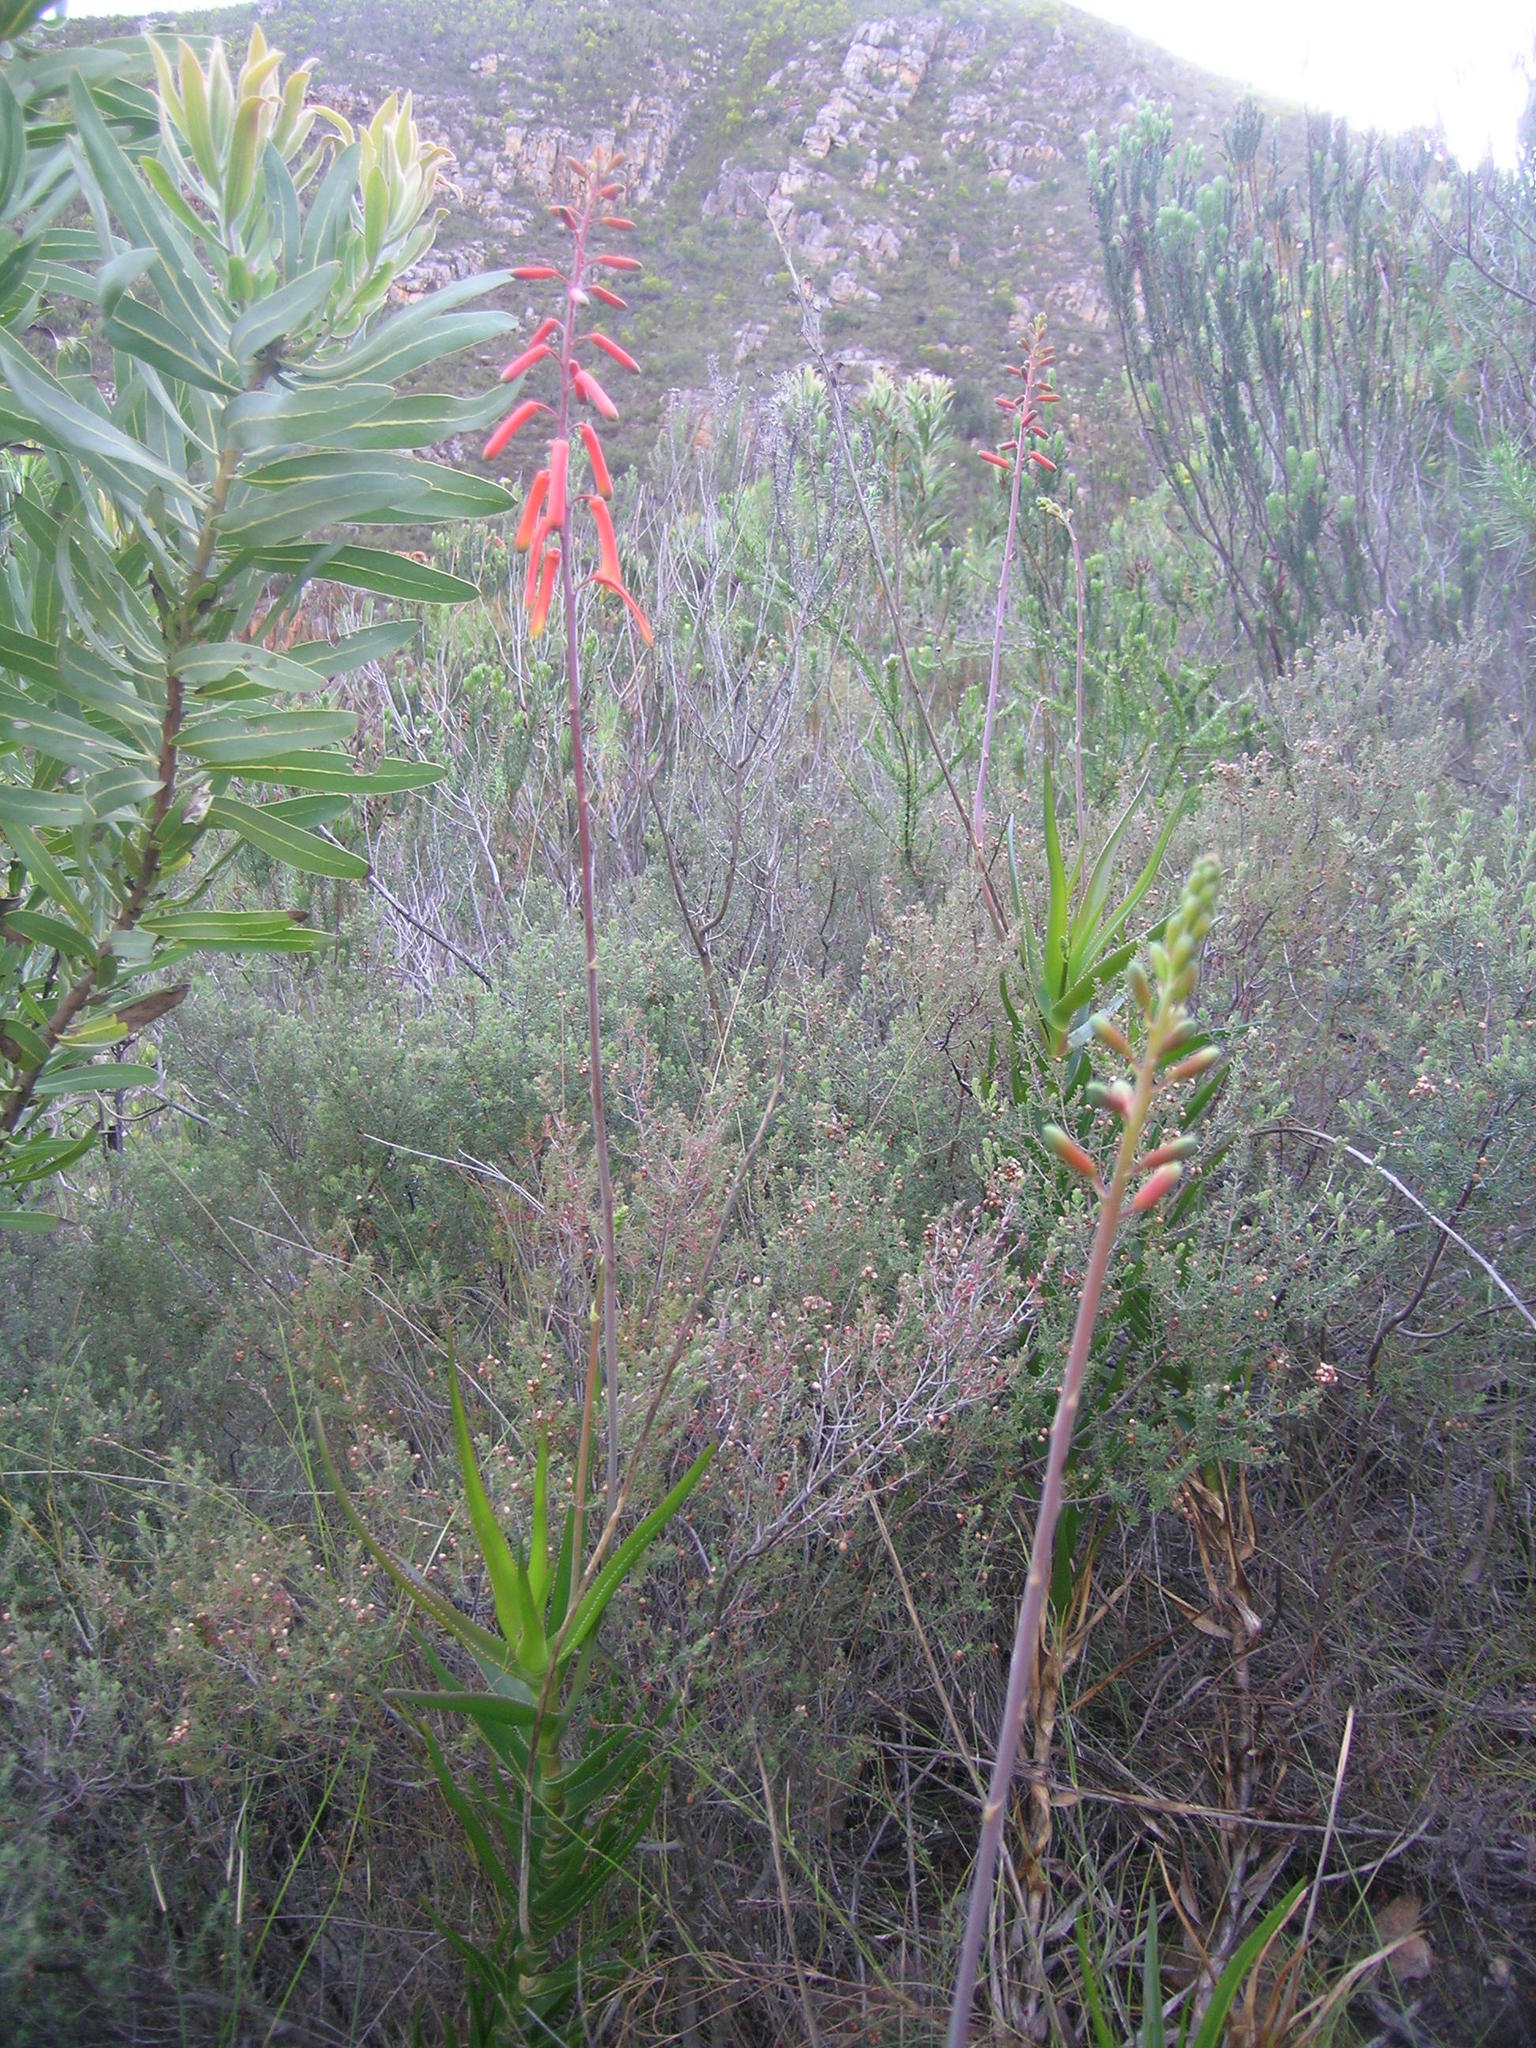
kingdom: Plantae
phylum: Tracheophyta
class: Liliopsida
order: Asparagales
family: Asphodelaceae
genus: Aloiampelos
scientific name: Aloiampelos decumbens
